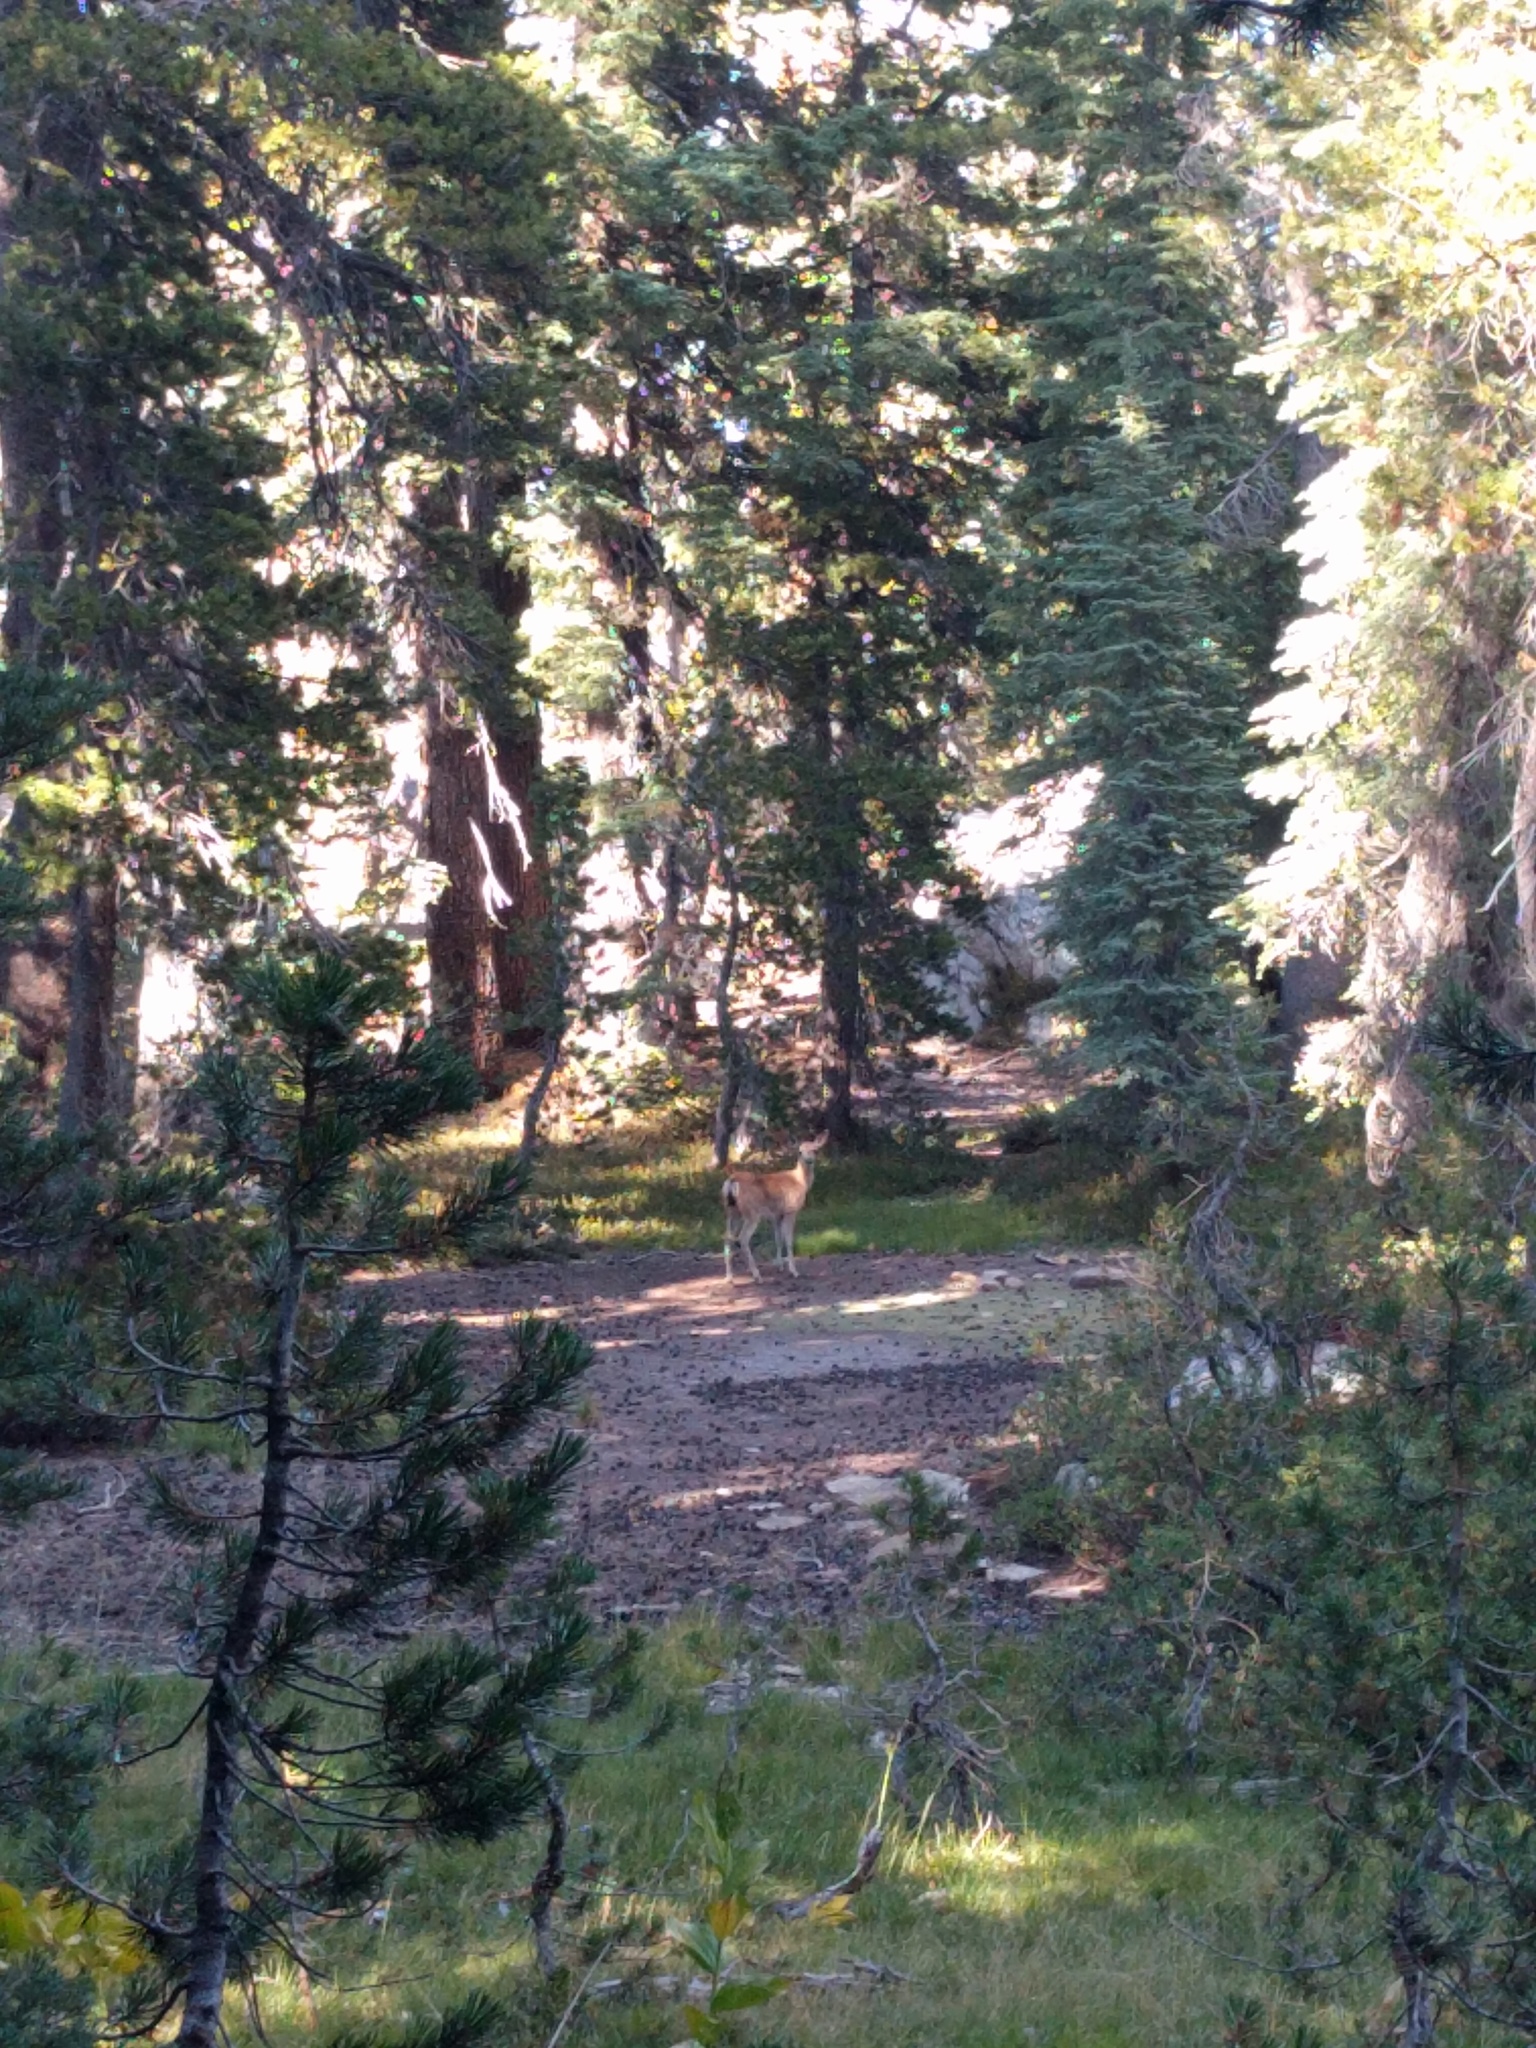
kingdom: Animalia
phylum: Chordata
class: Mammalia
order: Artiodactyla
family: Cervidae
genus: Odocoileus
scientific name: Odocoileus hemionus
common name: Mule deer
